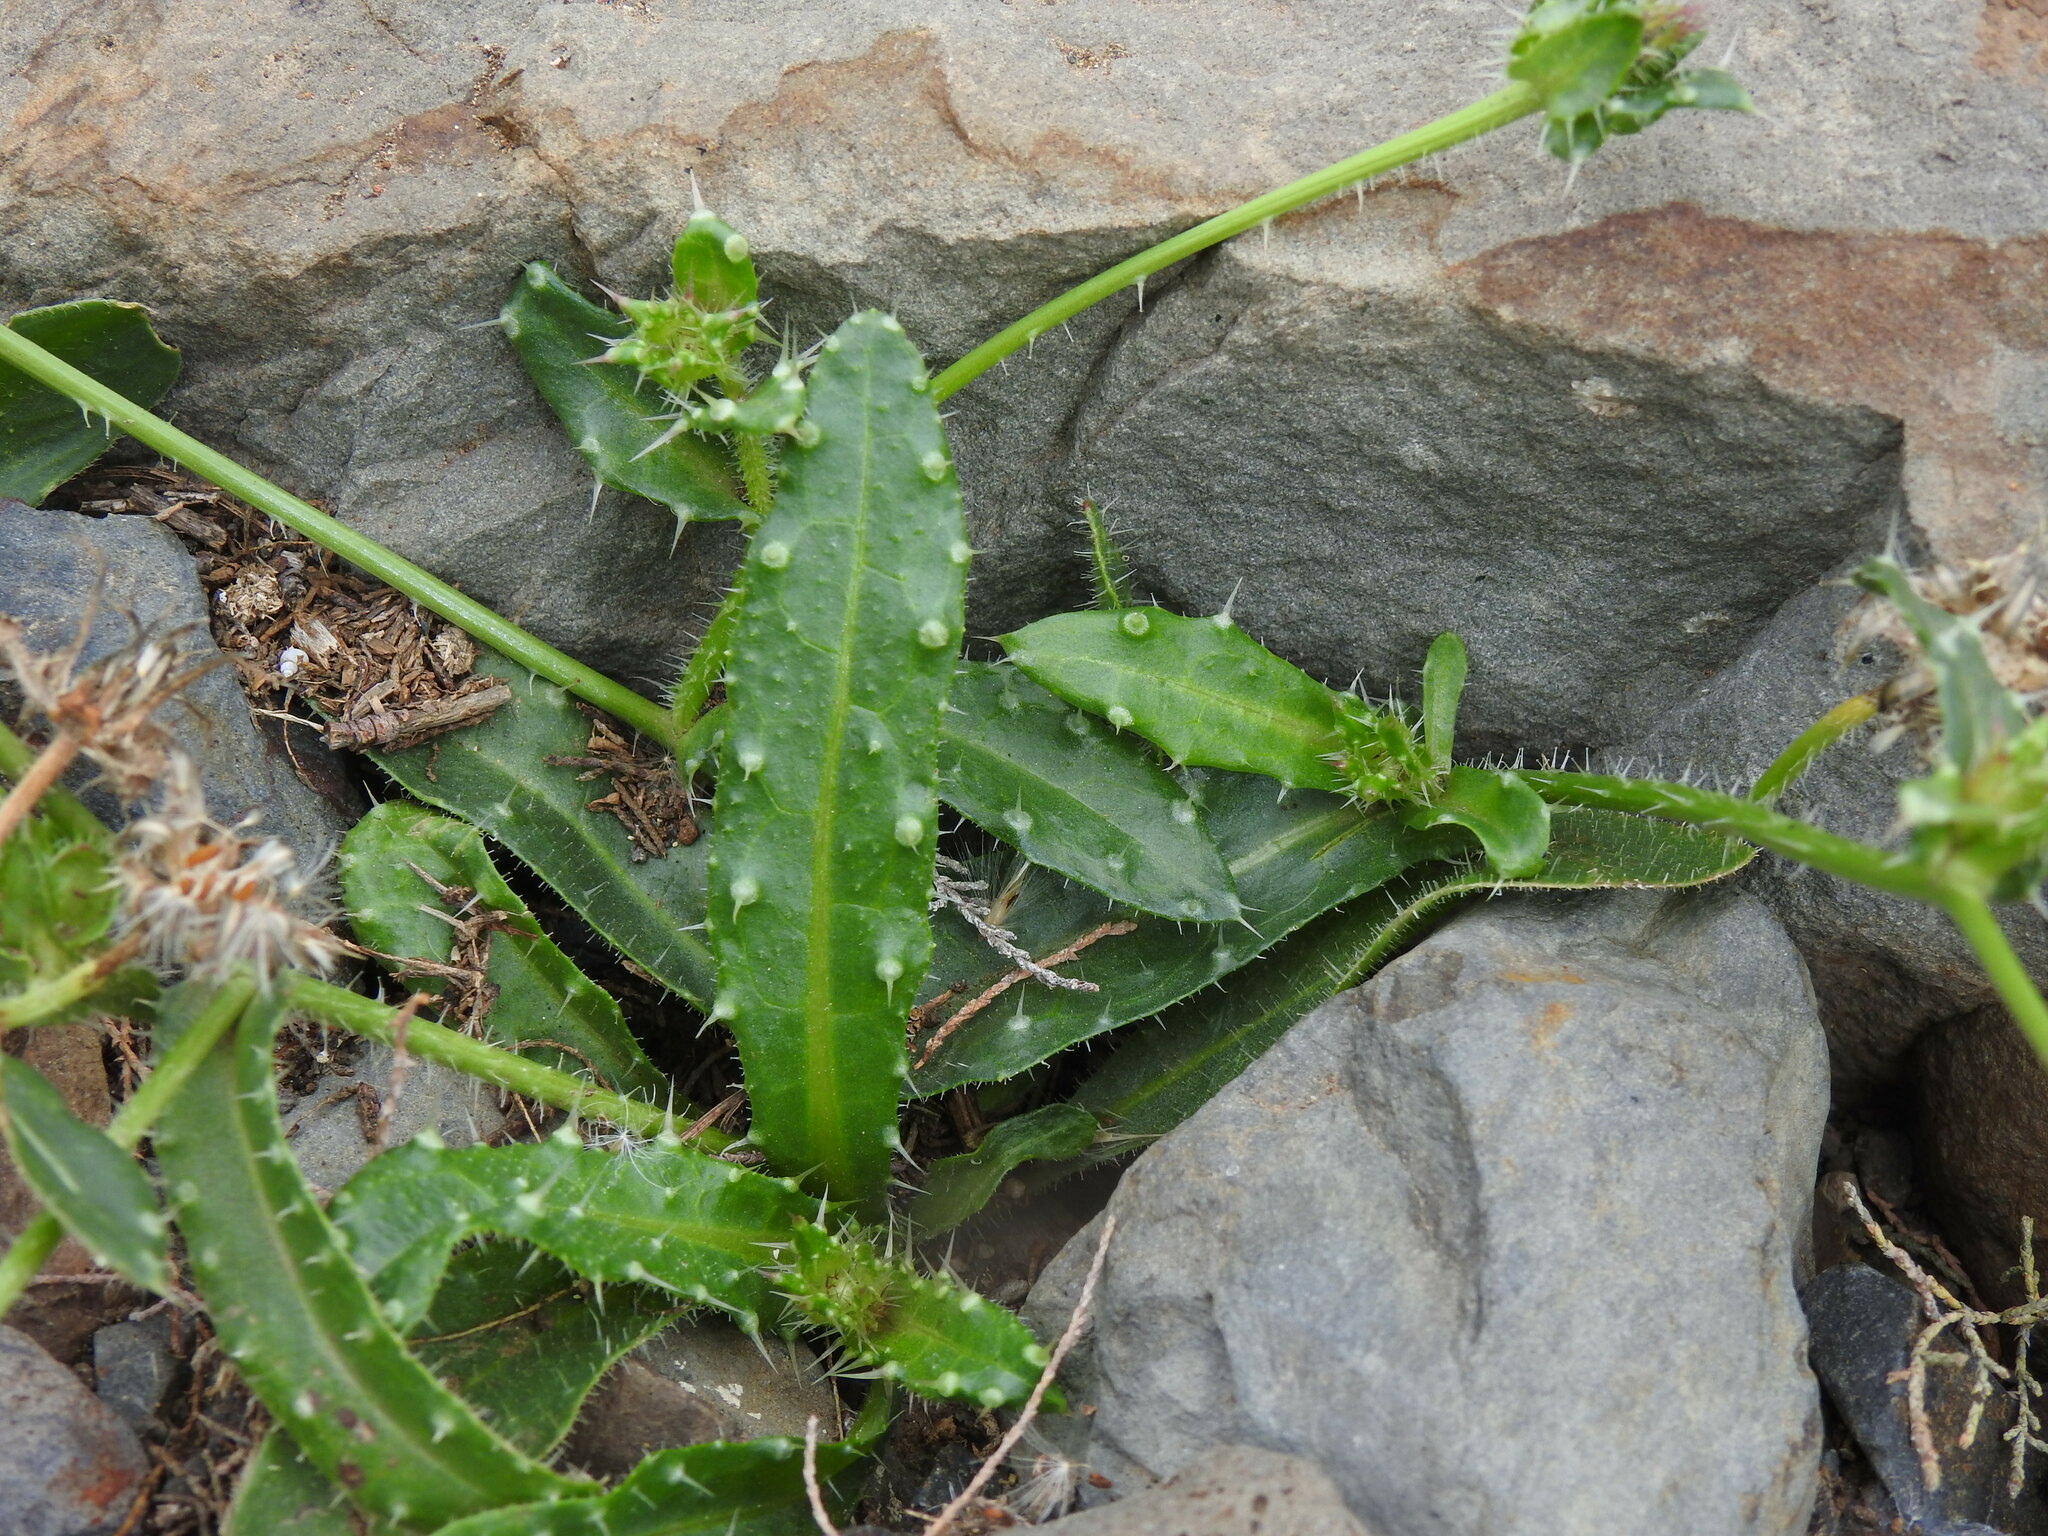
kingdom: Plantae
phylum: Tracheophyta
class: Magnoliopsida
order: Asterales
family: Asteraceae
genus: Helminthotheca
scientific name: Helminthotheca echioides
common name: Ox-tongue
